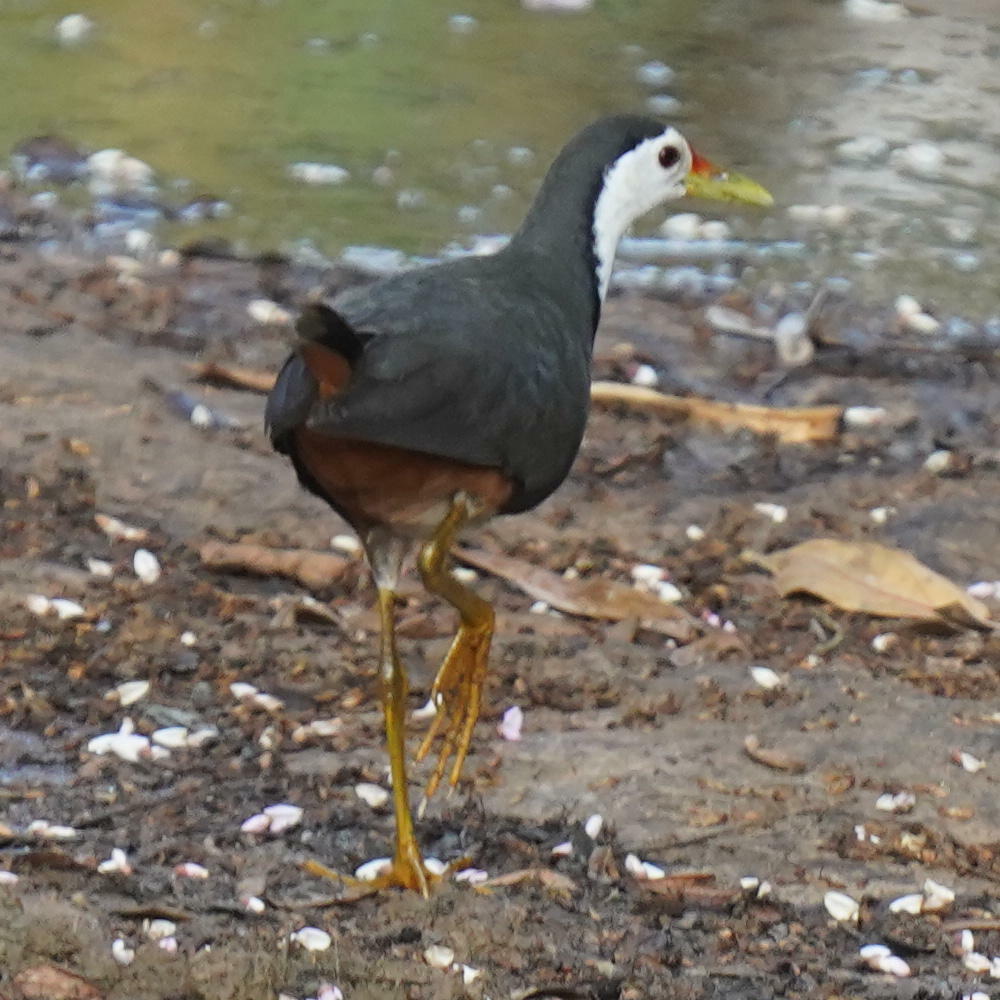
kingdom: Animalia
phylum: Chordata
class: Aves
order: Gruiformes
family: Rallidae
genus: Amaurornis
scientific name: Amaurornis phoenicurus
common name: White-breasted waterhen
